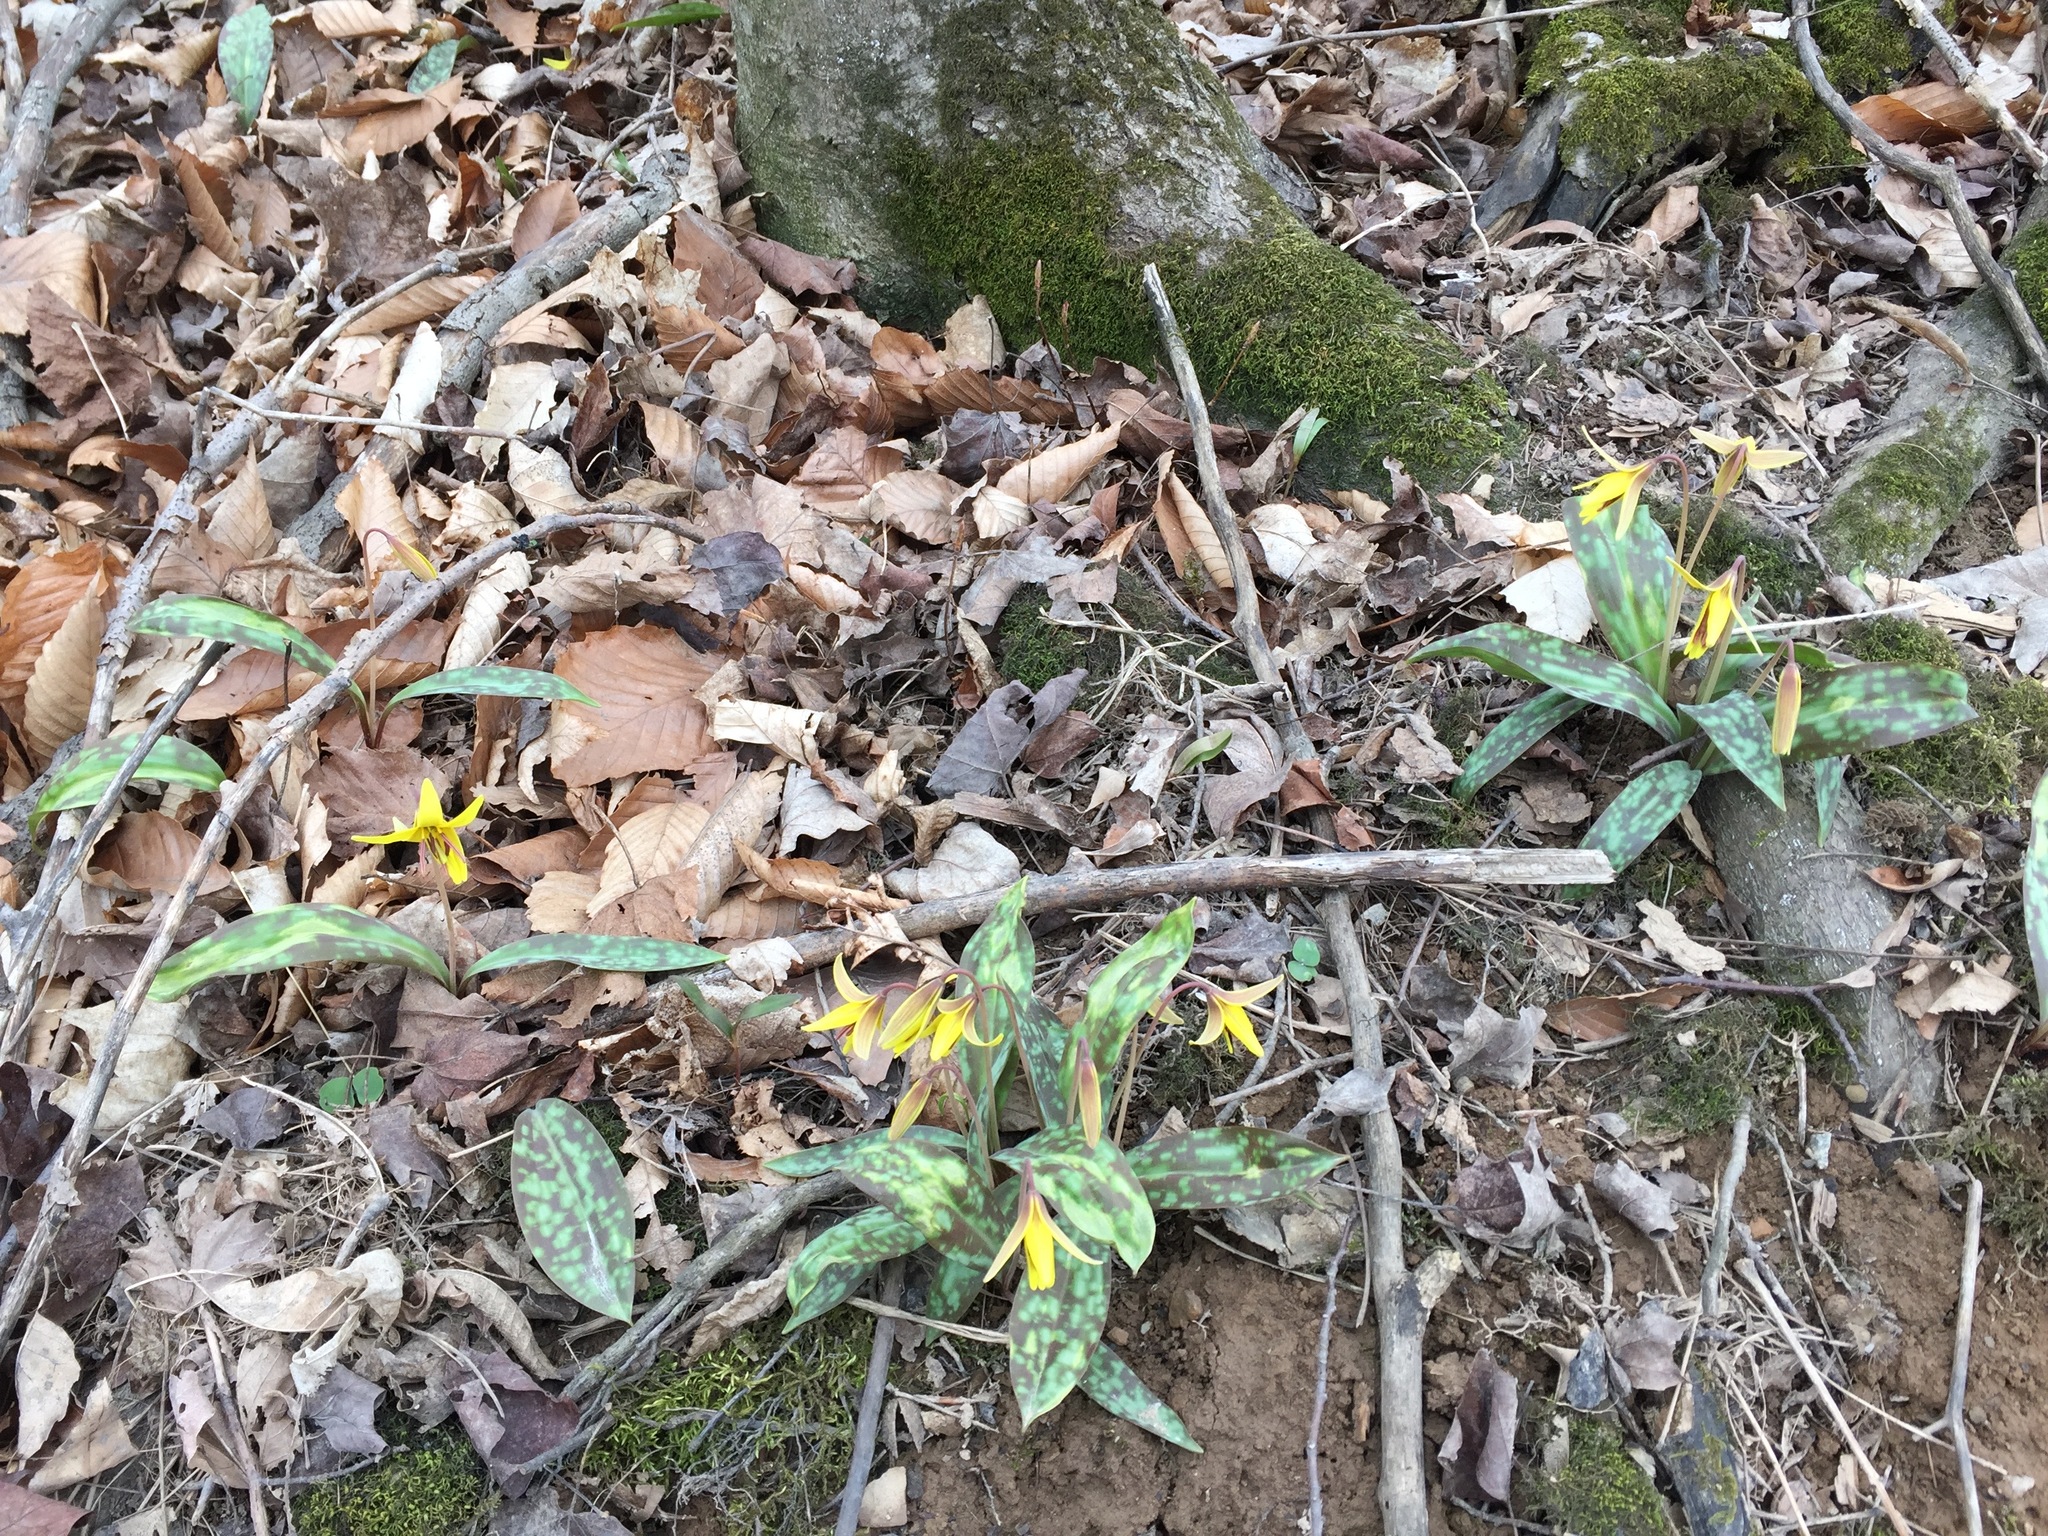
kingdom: Plantae
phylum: Tracheophyta
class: Liliopsida
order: Liliales
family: Liliaceae
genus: Erythronium
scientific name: Erythronium americanum
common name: Yellow adder's-tongue
